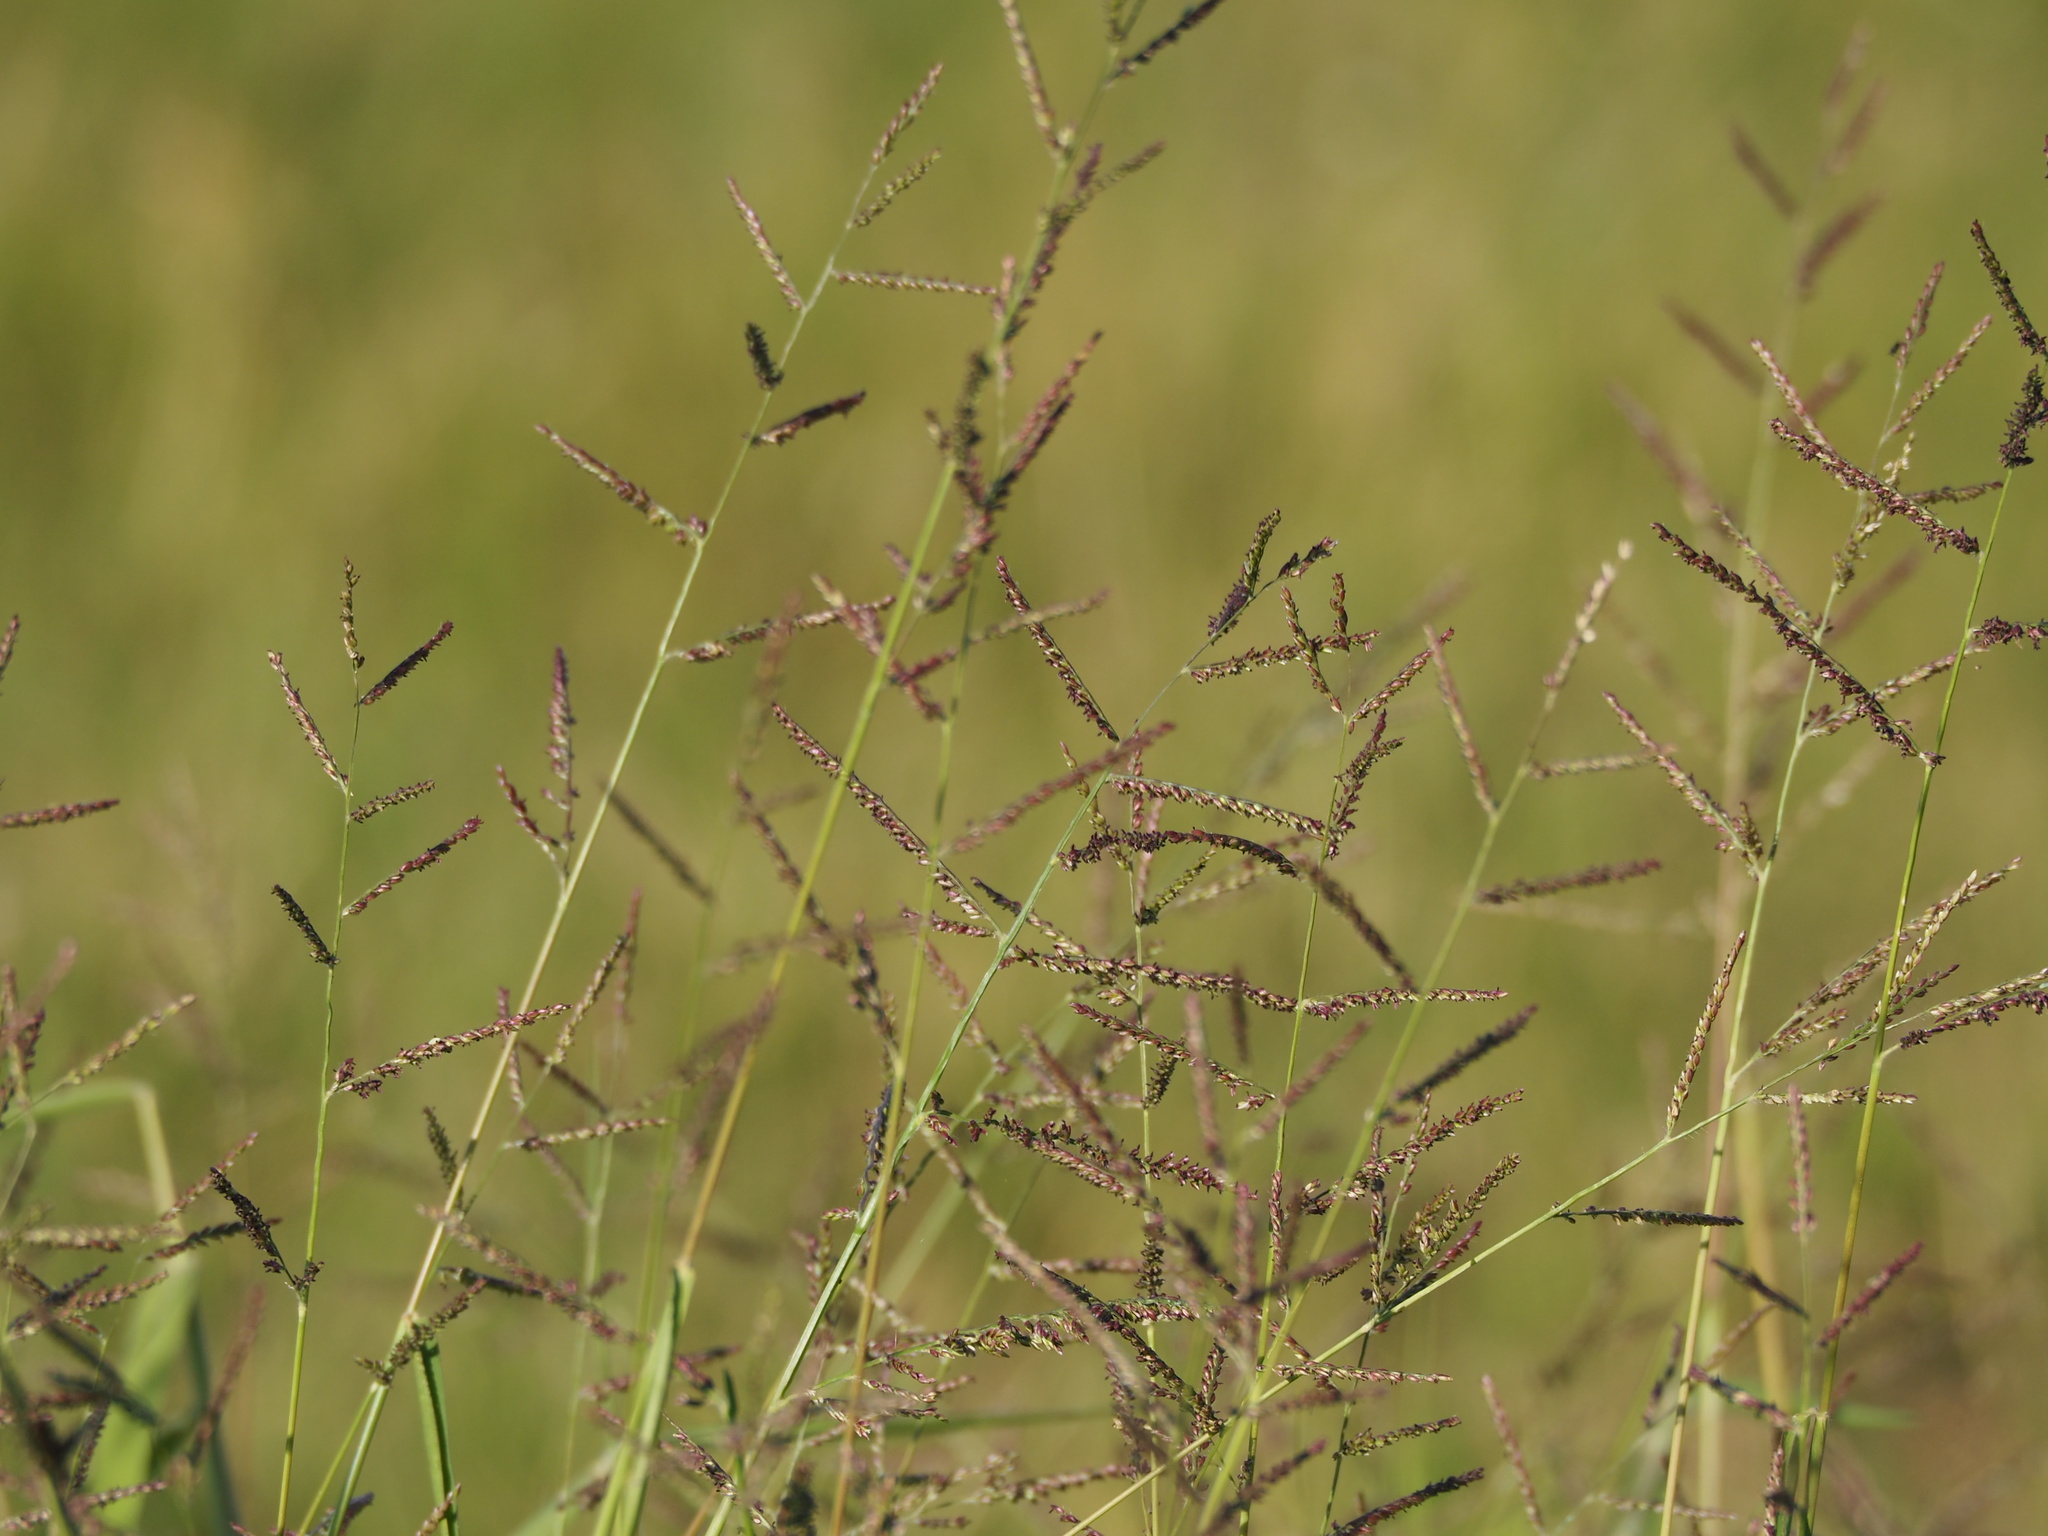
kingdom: Plantae
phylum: Tracheophyta
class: Liliopsida
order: Poales
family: Poaceae
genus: Urochloa
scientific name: Urochloa mutica
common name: Para grass
